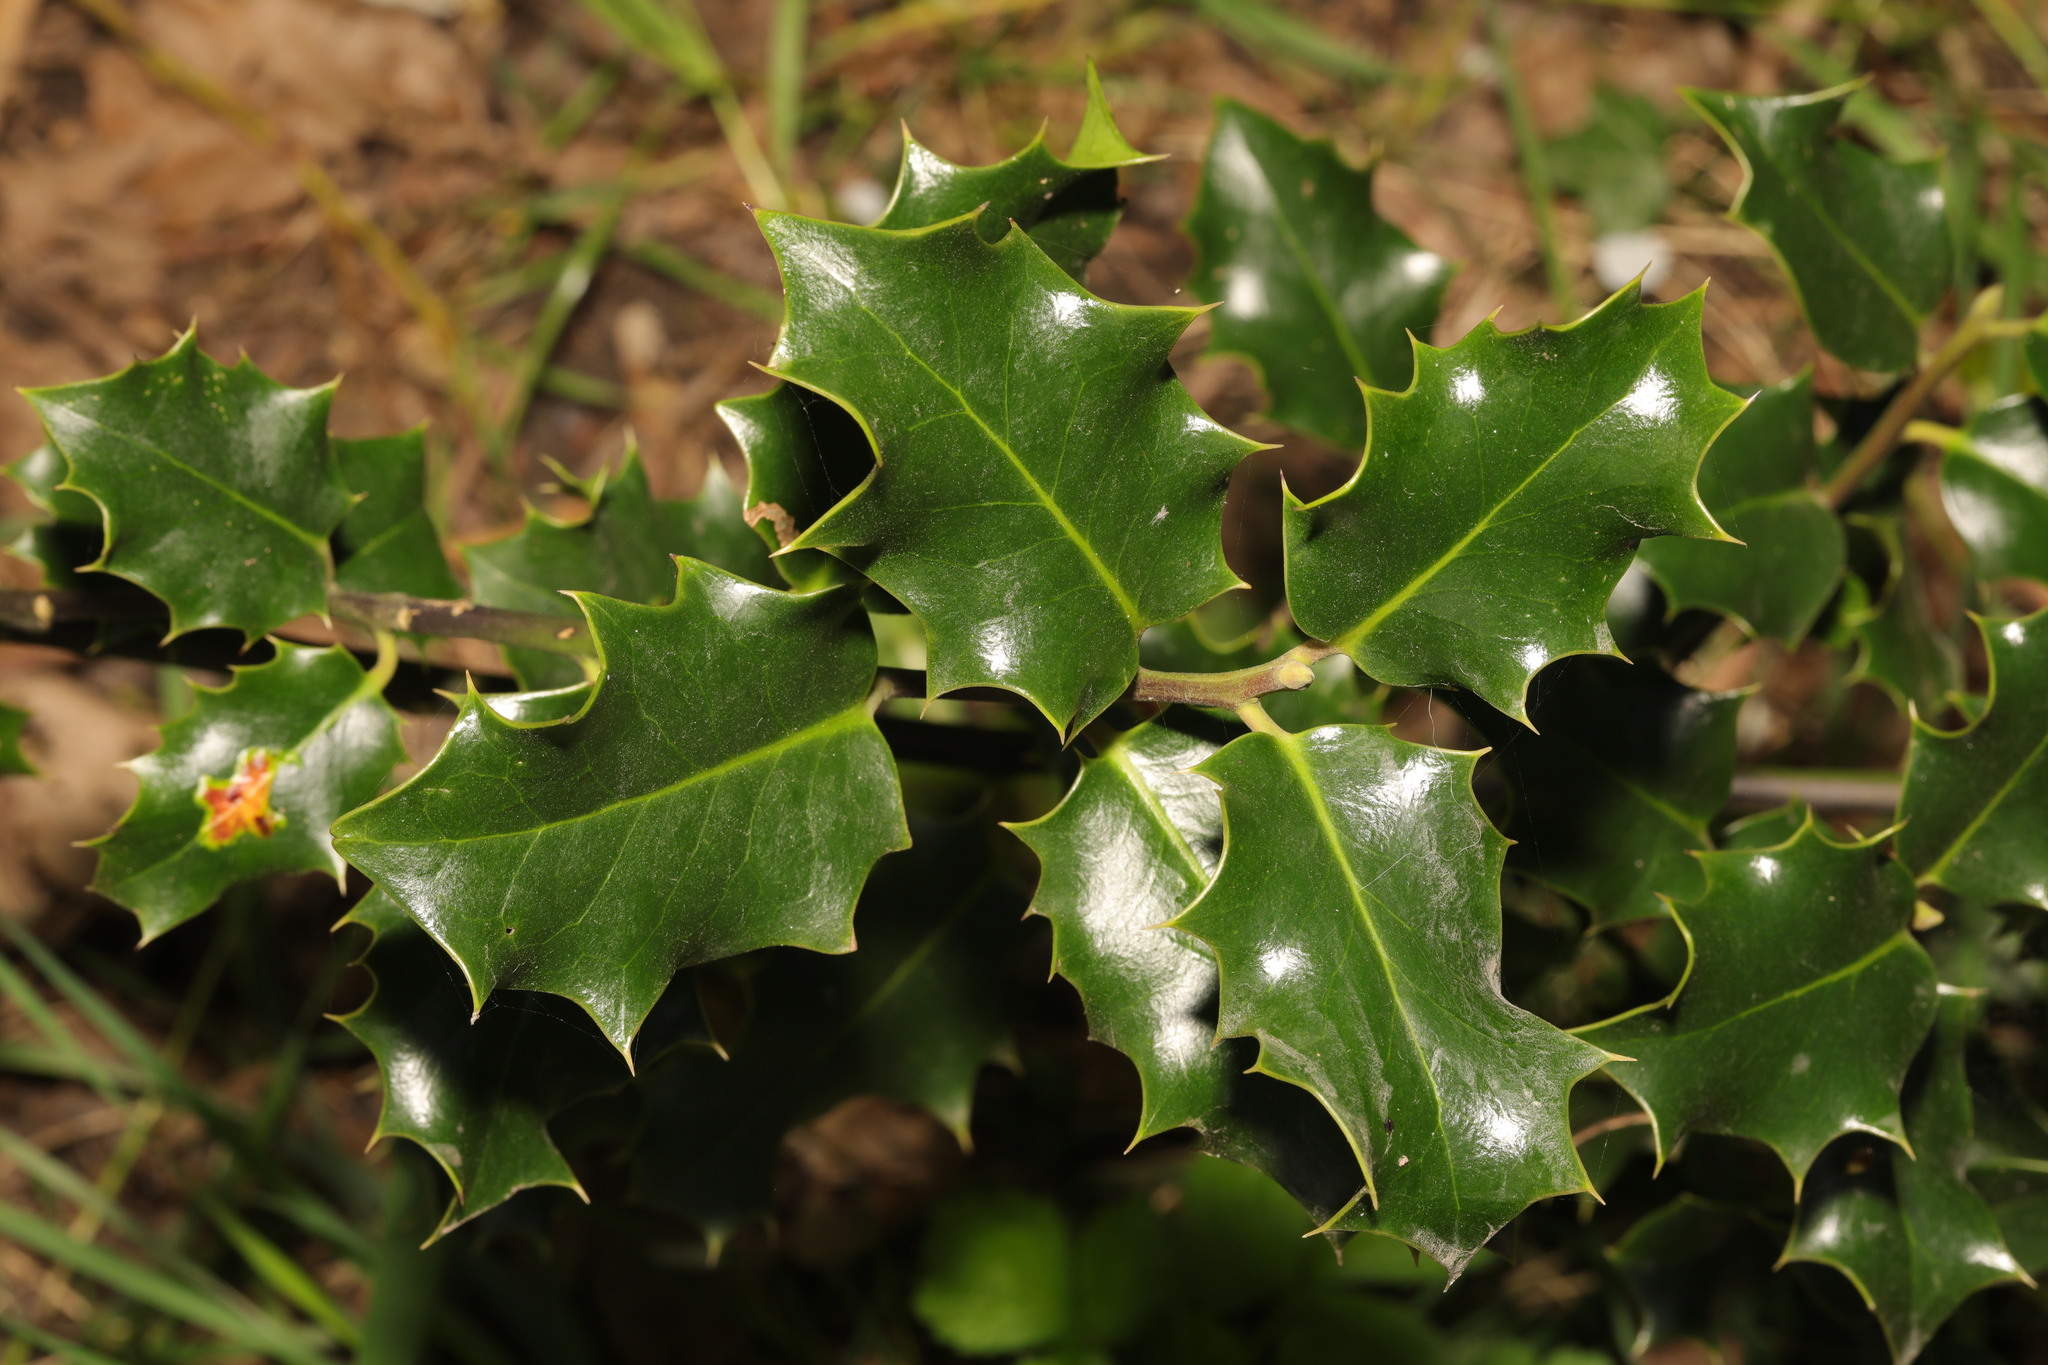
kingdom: Plantae
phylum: Tracheophyta
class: Magnoliopsida
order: Aquifoliales
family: Aquifoliaceae
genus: Ilex
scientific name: Ilex aquifolium
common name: English holly
